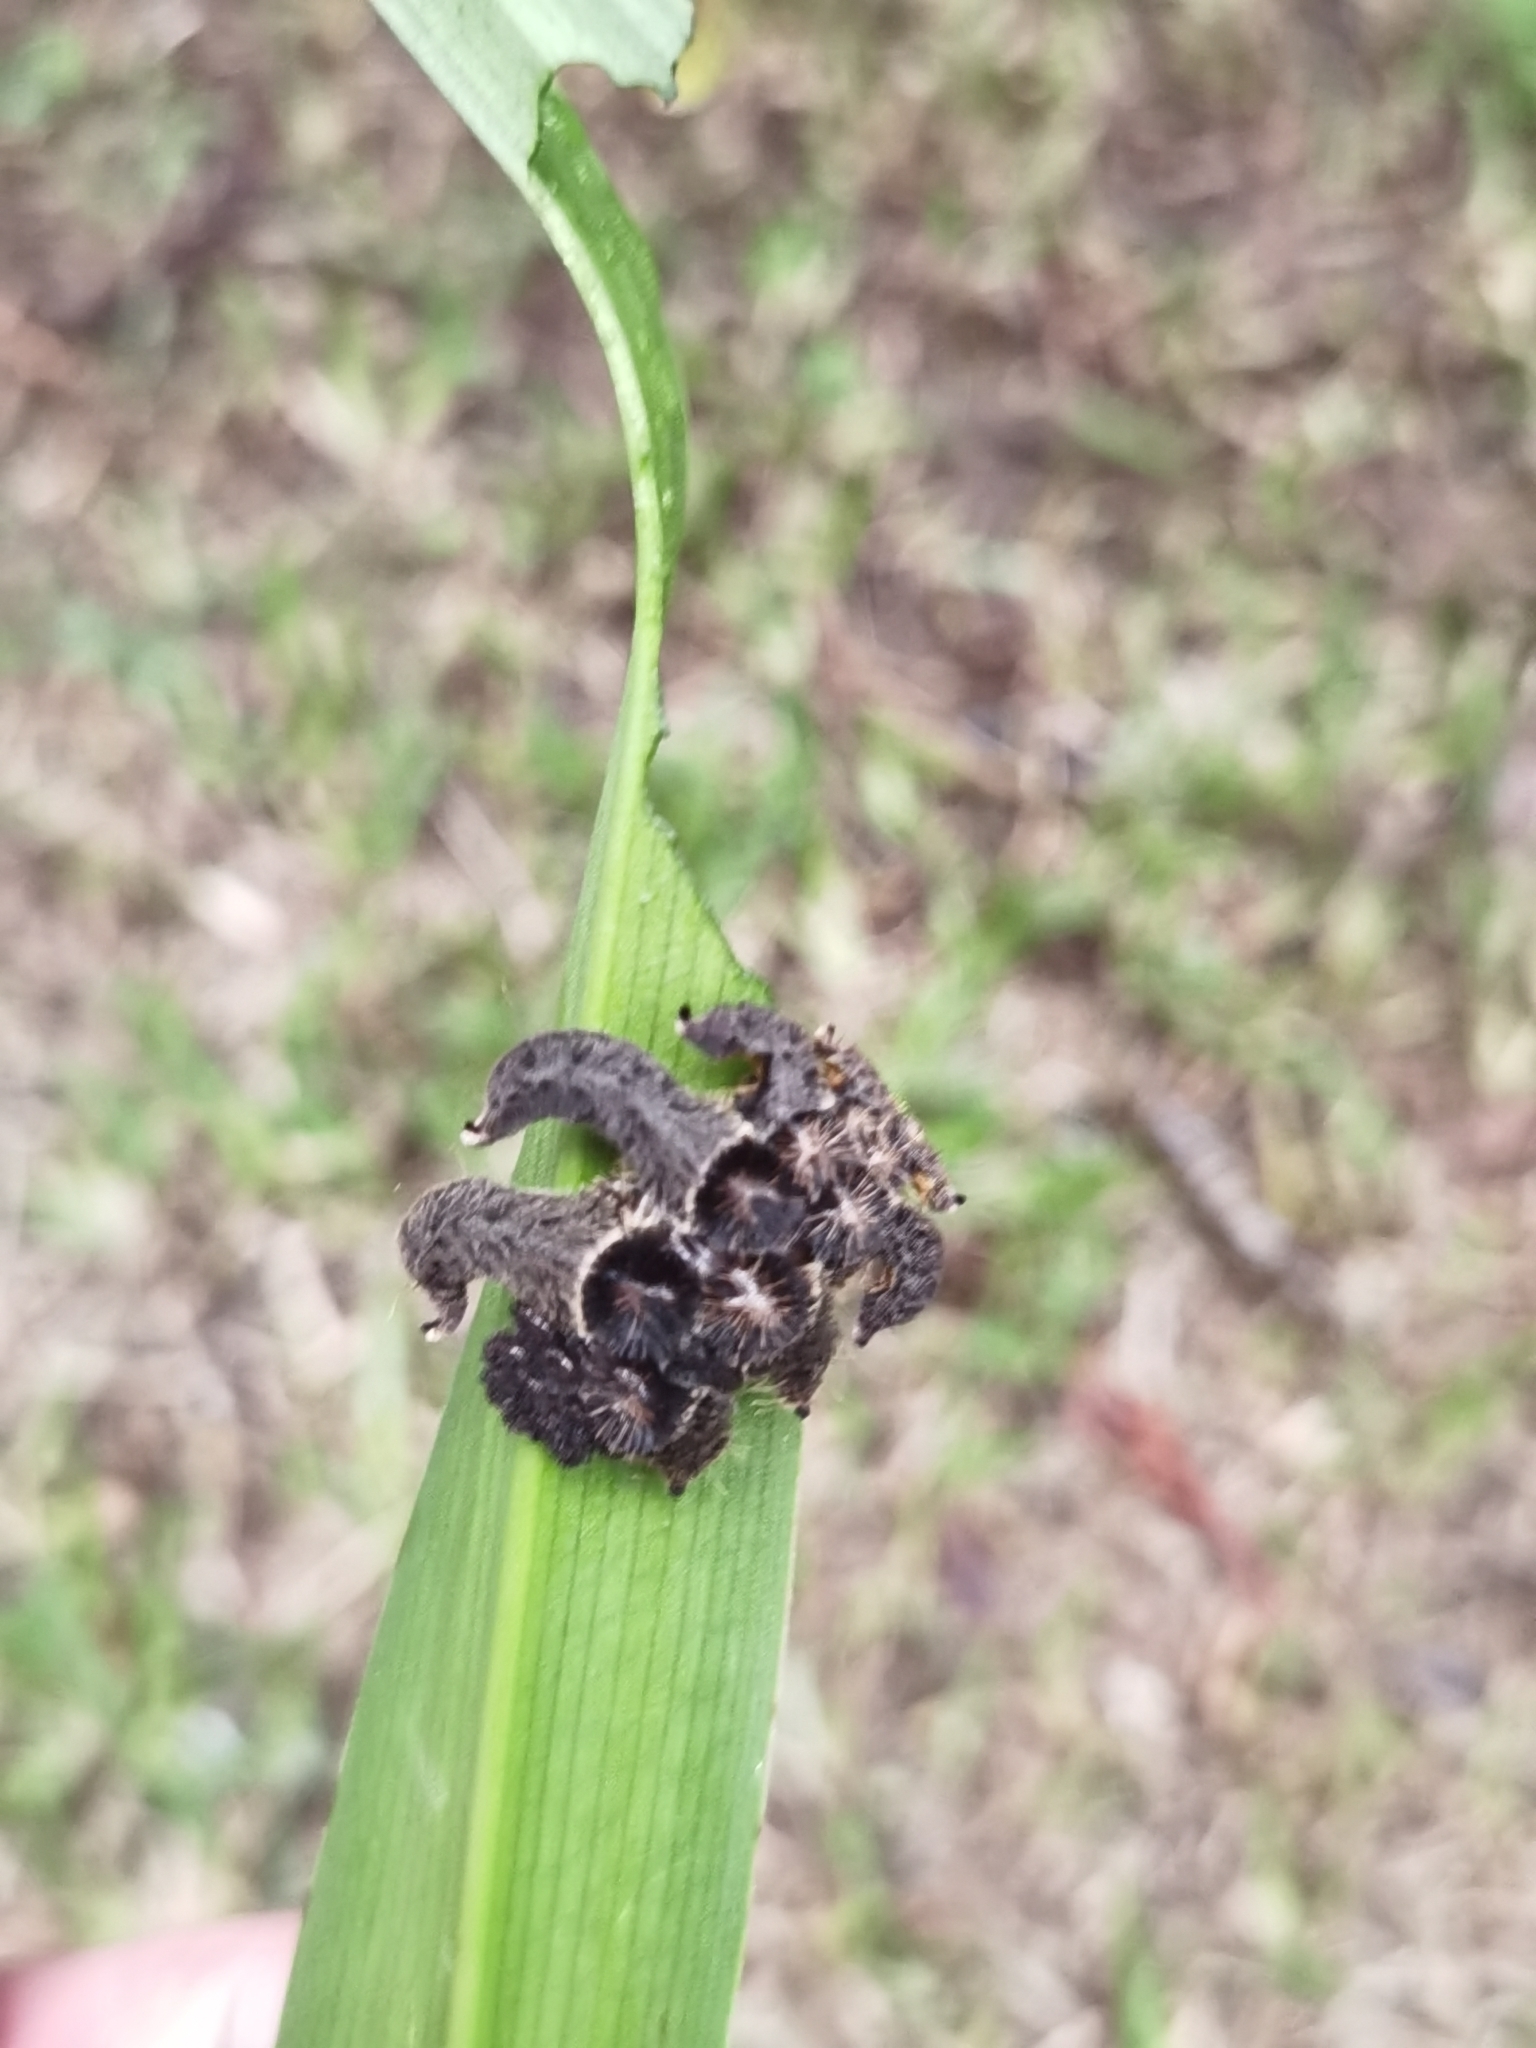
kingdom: Animalia
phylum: Arthropoda
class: Insecta
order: Lepidoptera
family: Limacodidae
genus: Phobetron
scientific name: Phobetron hipparchia
